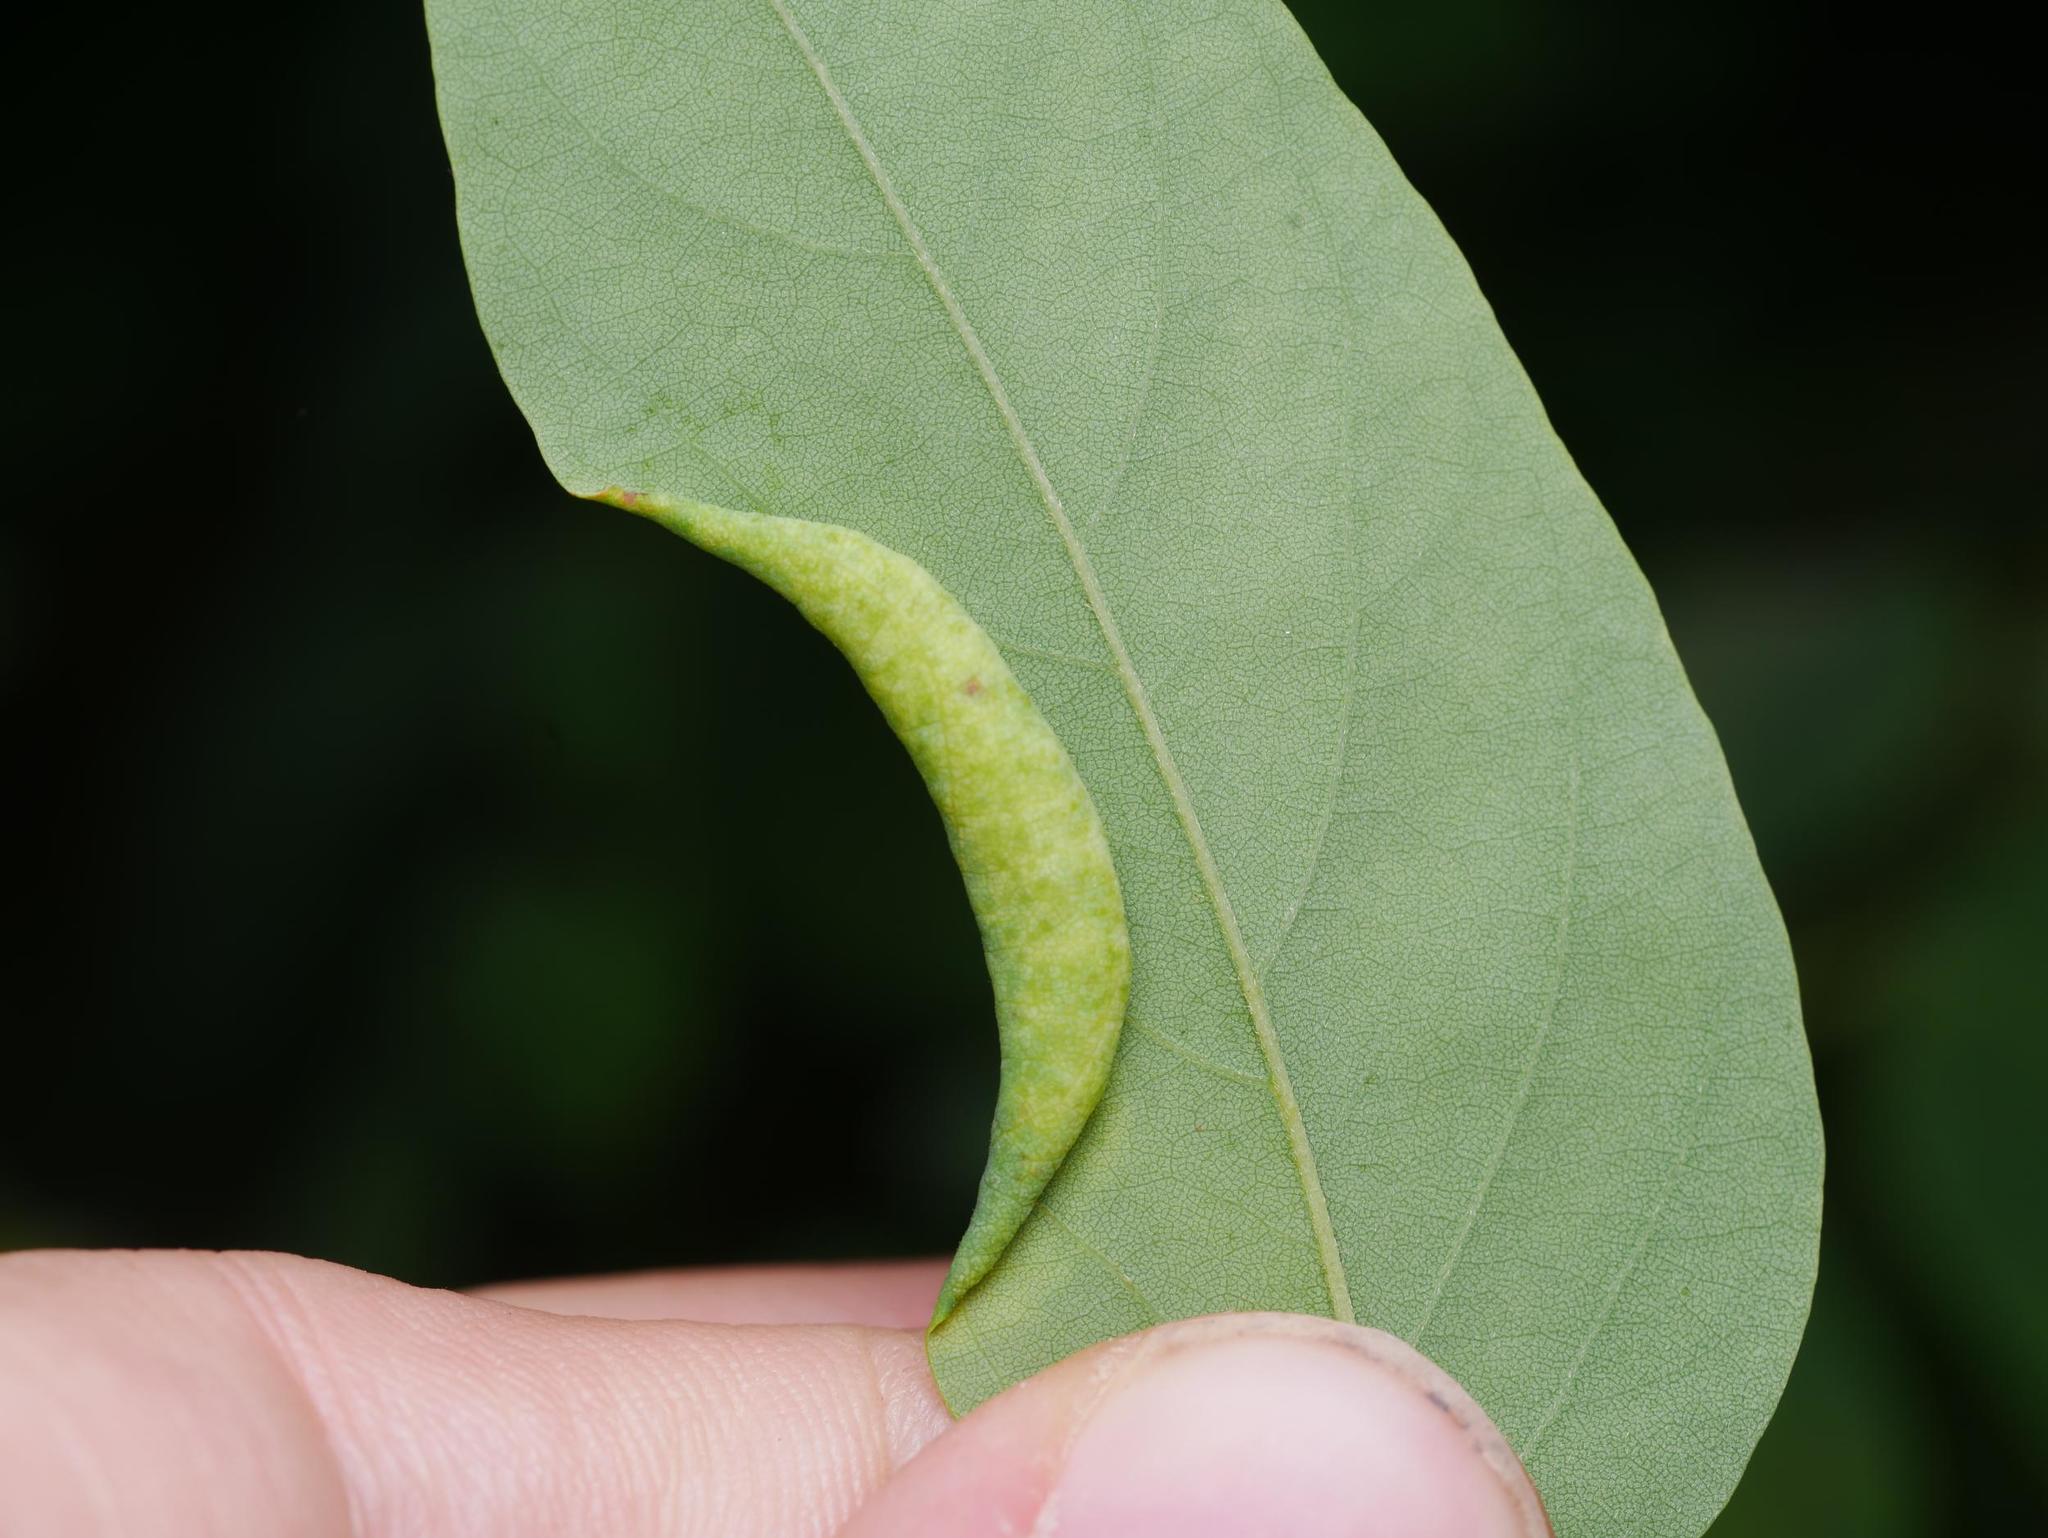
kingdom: Animalia
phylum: Arthropoda
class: Insecta
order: Diptera
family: Cecidomyiidae
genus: Obolodiplosis
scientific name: Obolodiplosis robiniae
